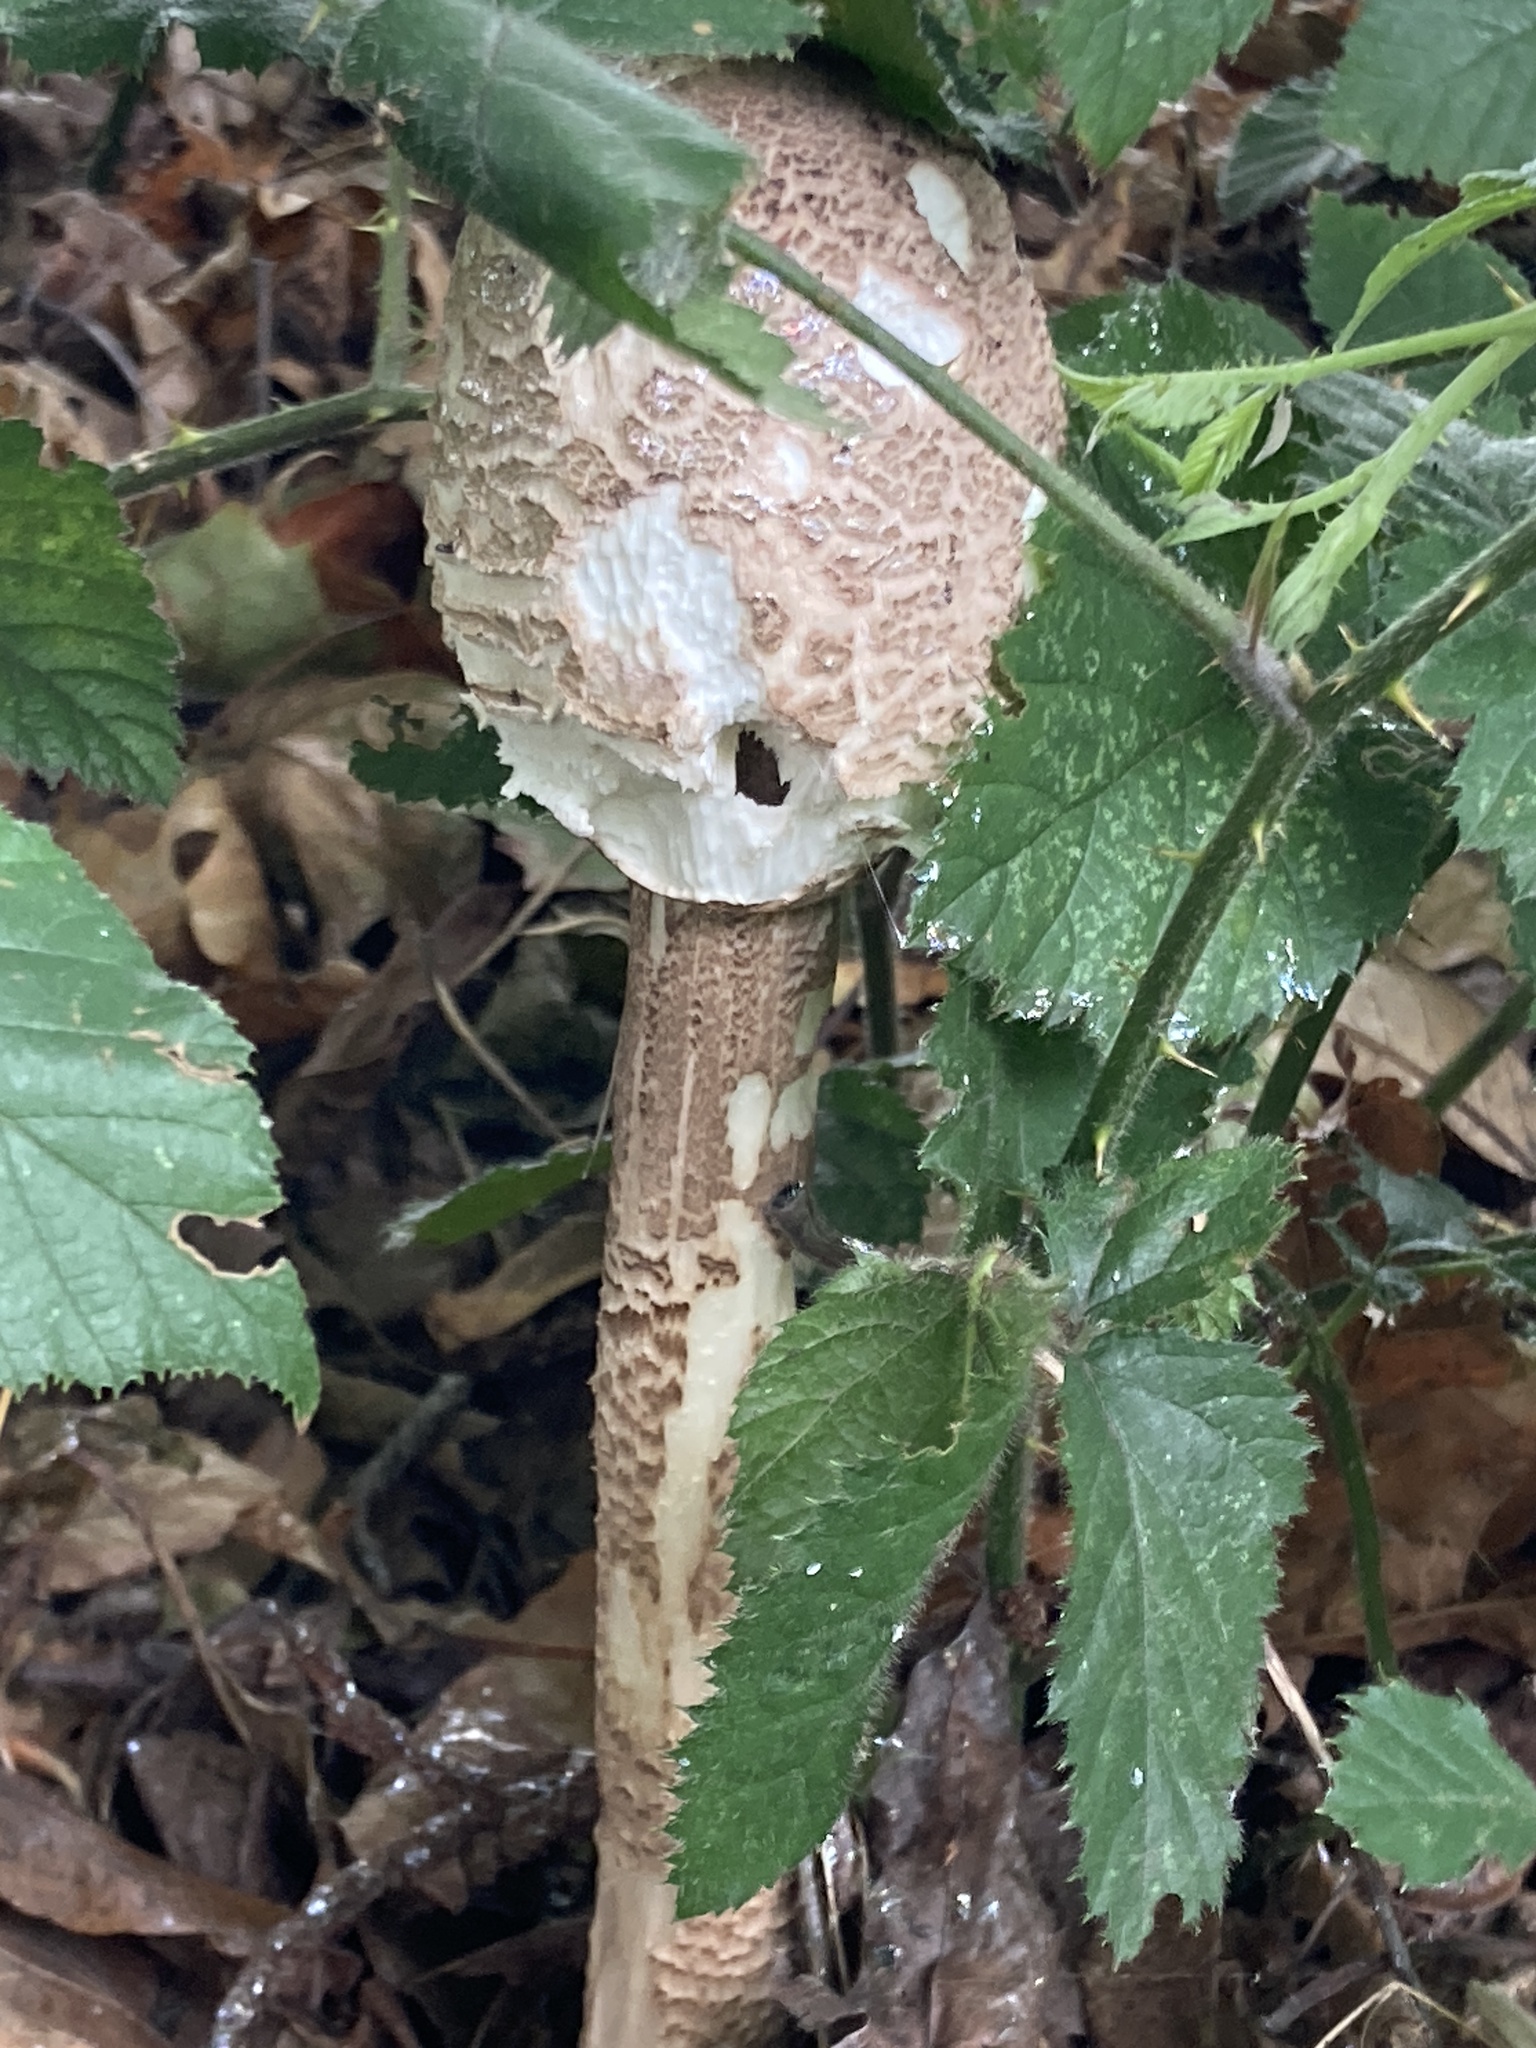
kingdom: Fungi
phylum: Basidiomycota
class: Agaricomycetes
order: Agaricales
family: Agaricaceae
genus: Macrolepiota
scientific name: Macrolepiota procera
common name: Parasol
